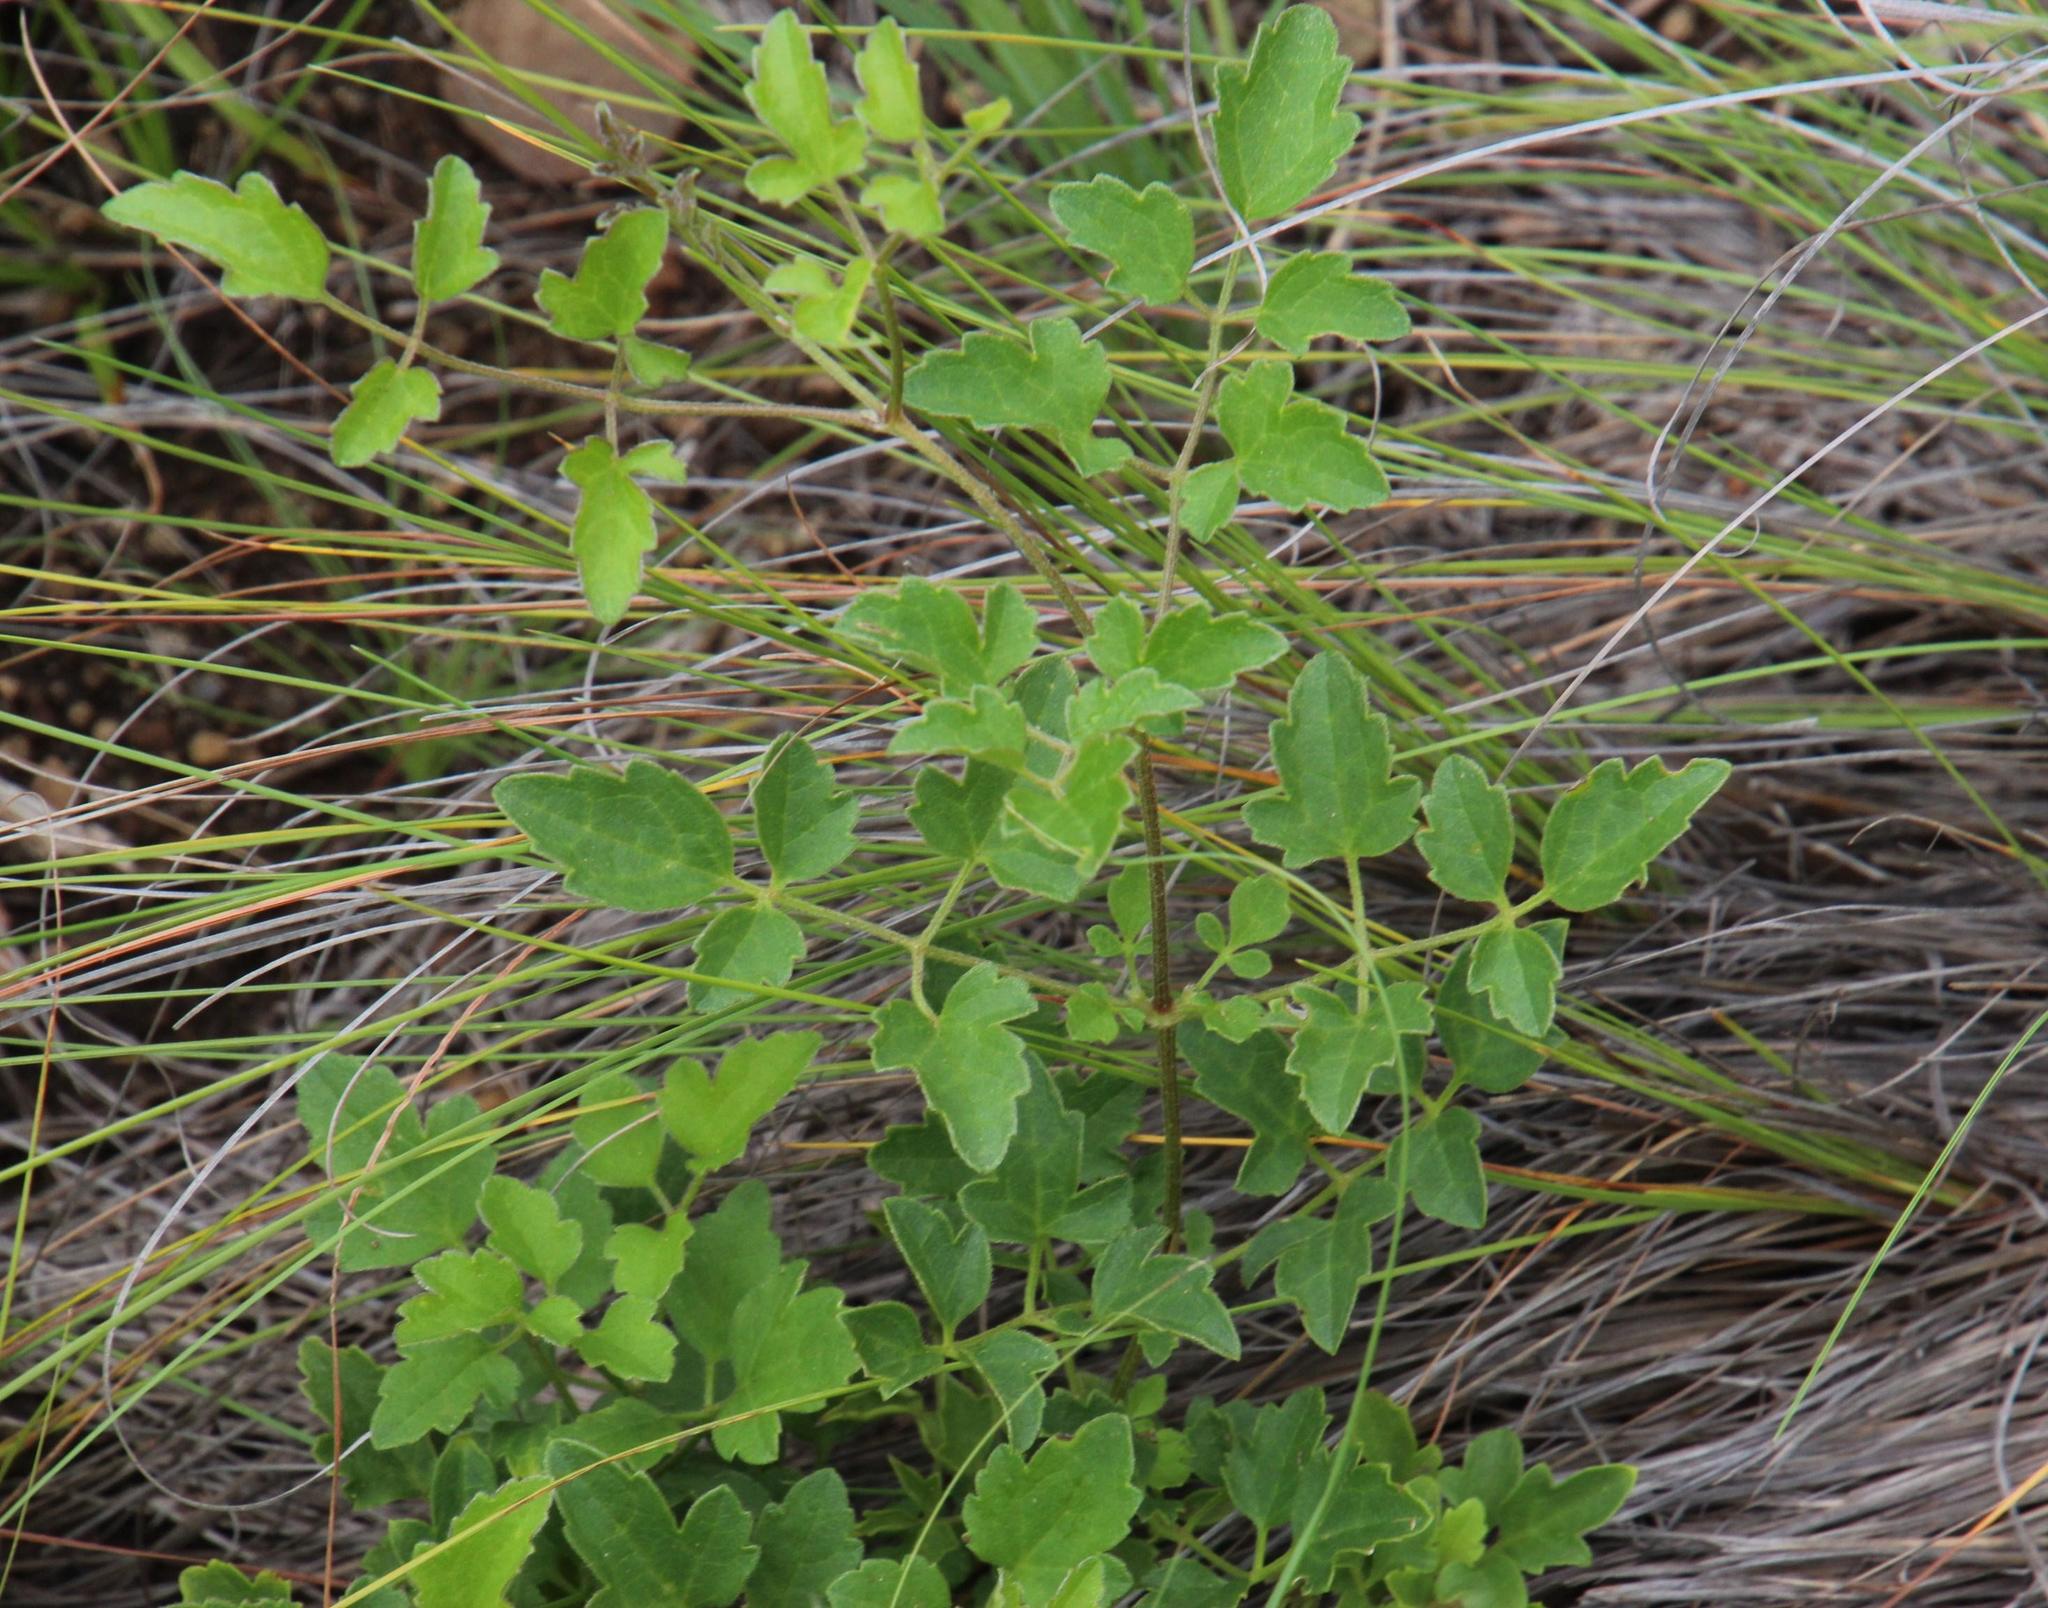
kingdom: Plantae
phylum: Tracheophyta
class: Magnoliopsida
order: Ranunculales
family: Ranunculaceae
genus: Clematis
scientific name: Clematis brachiata
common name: Traveler's-joy
